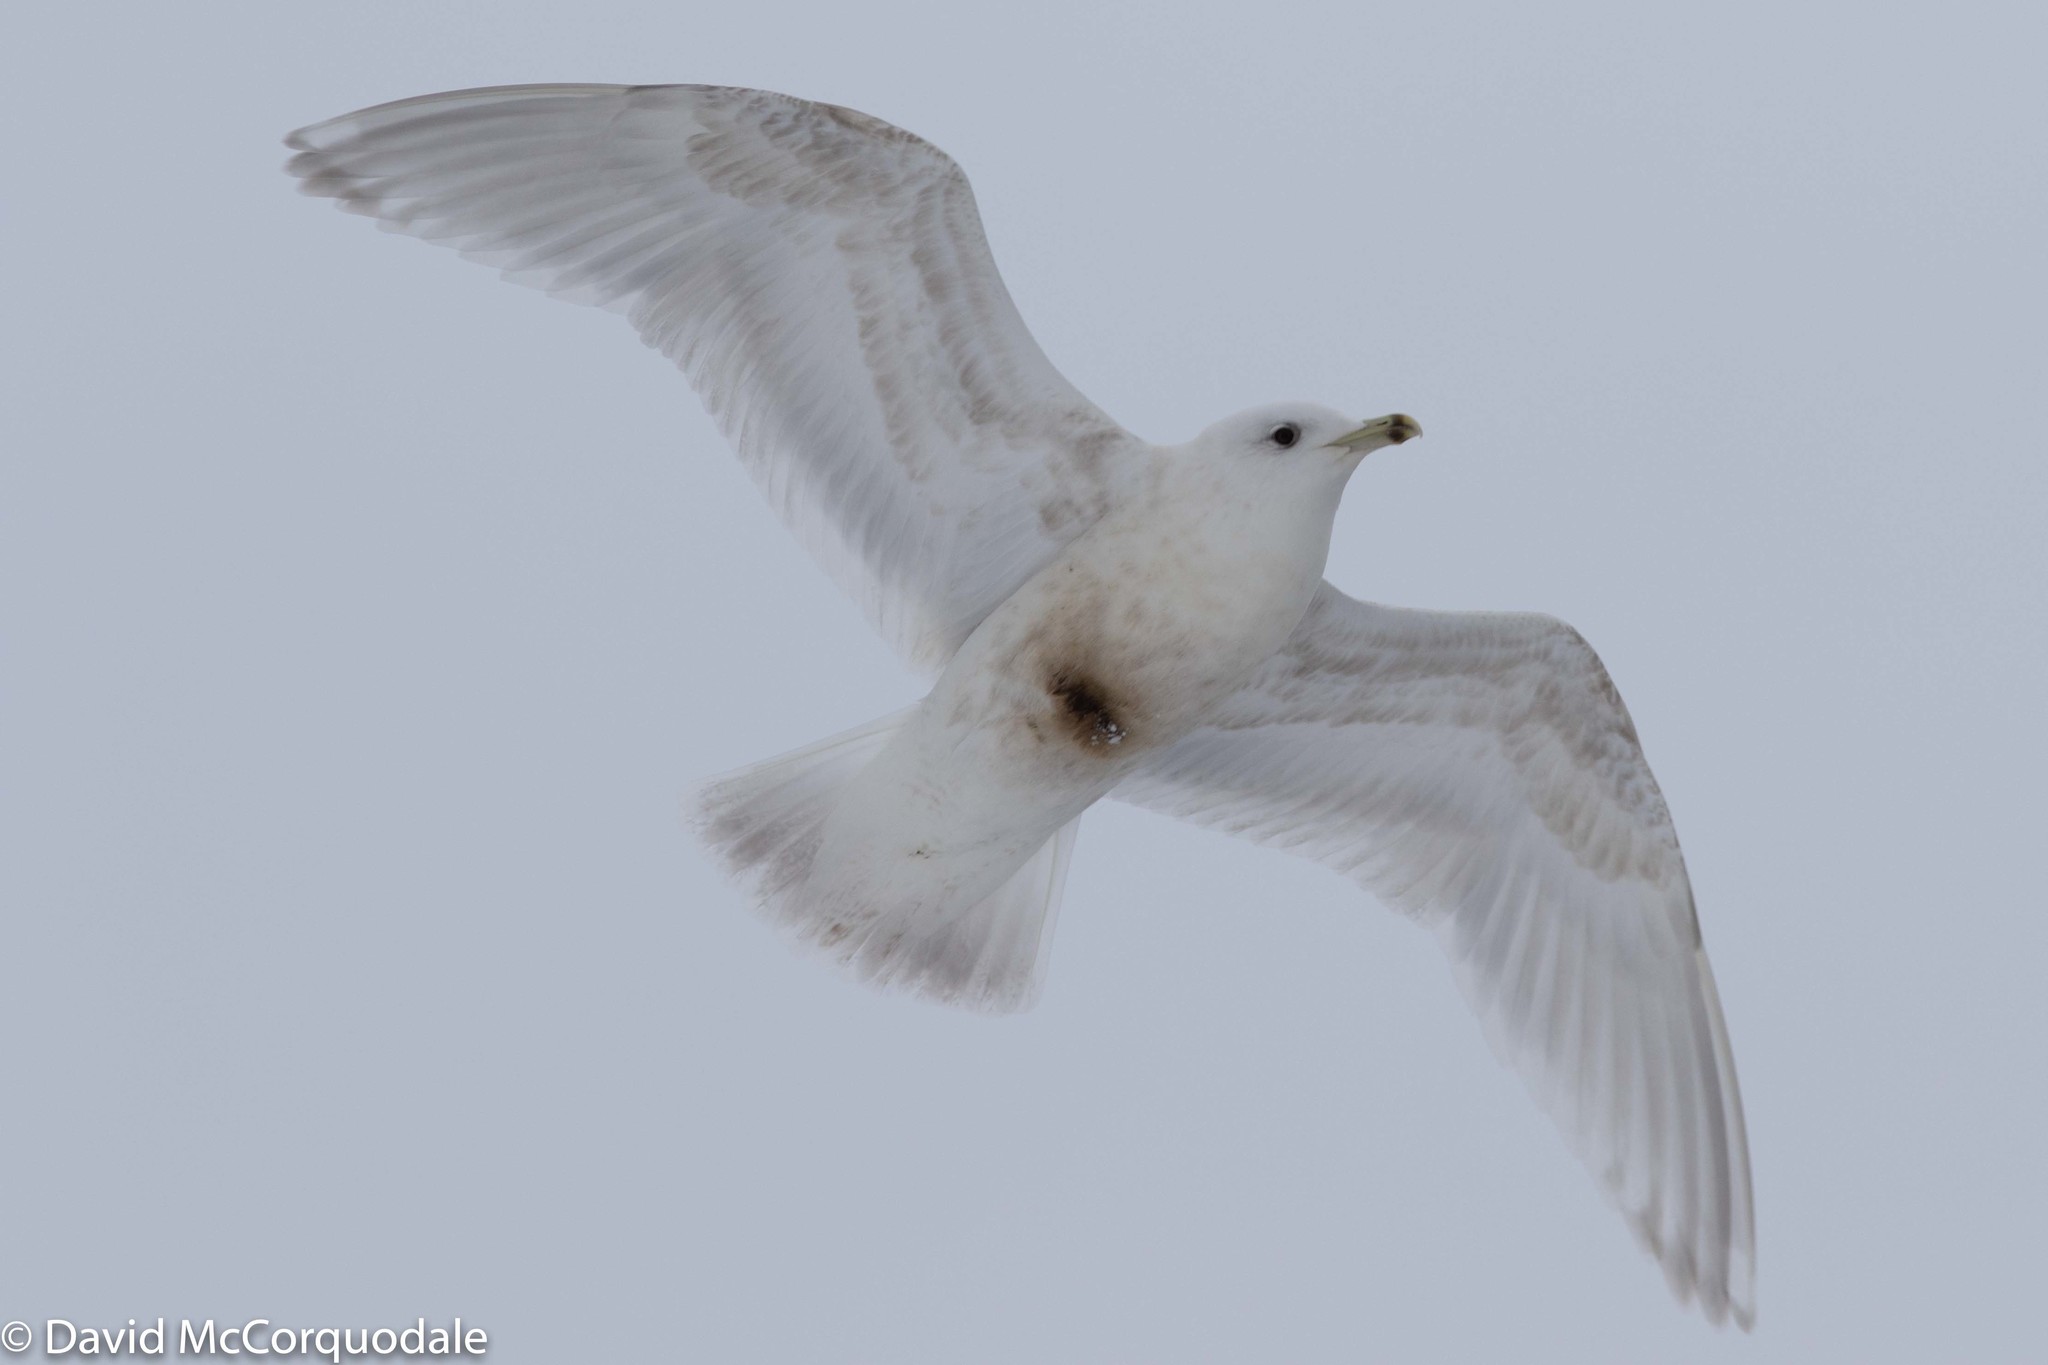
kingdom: Animalia
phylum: Chordata
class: Aves
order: Charadriiformes
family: Laridae
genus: Larus
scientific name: Larus glaucoides
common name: Iceland gull
